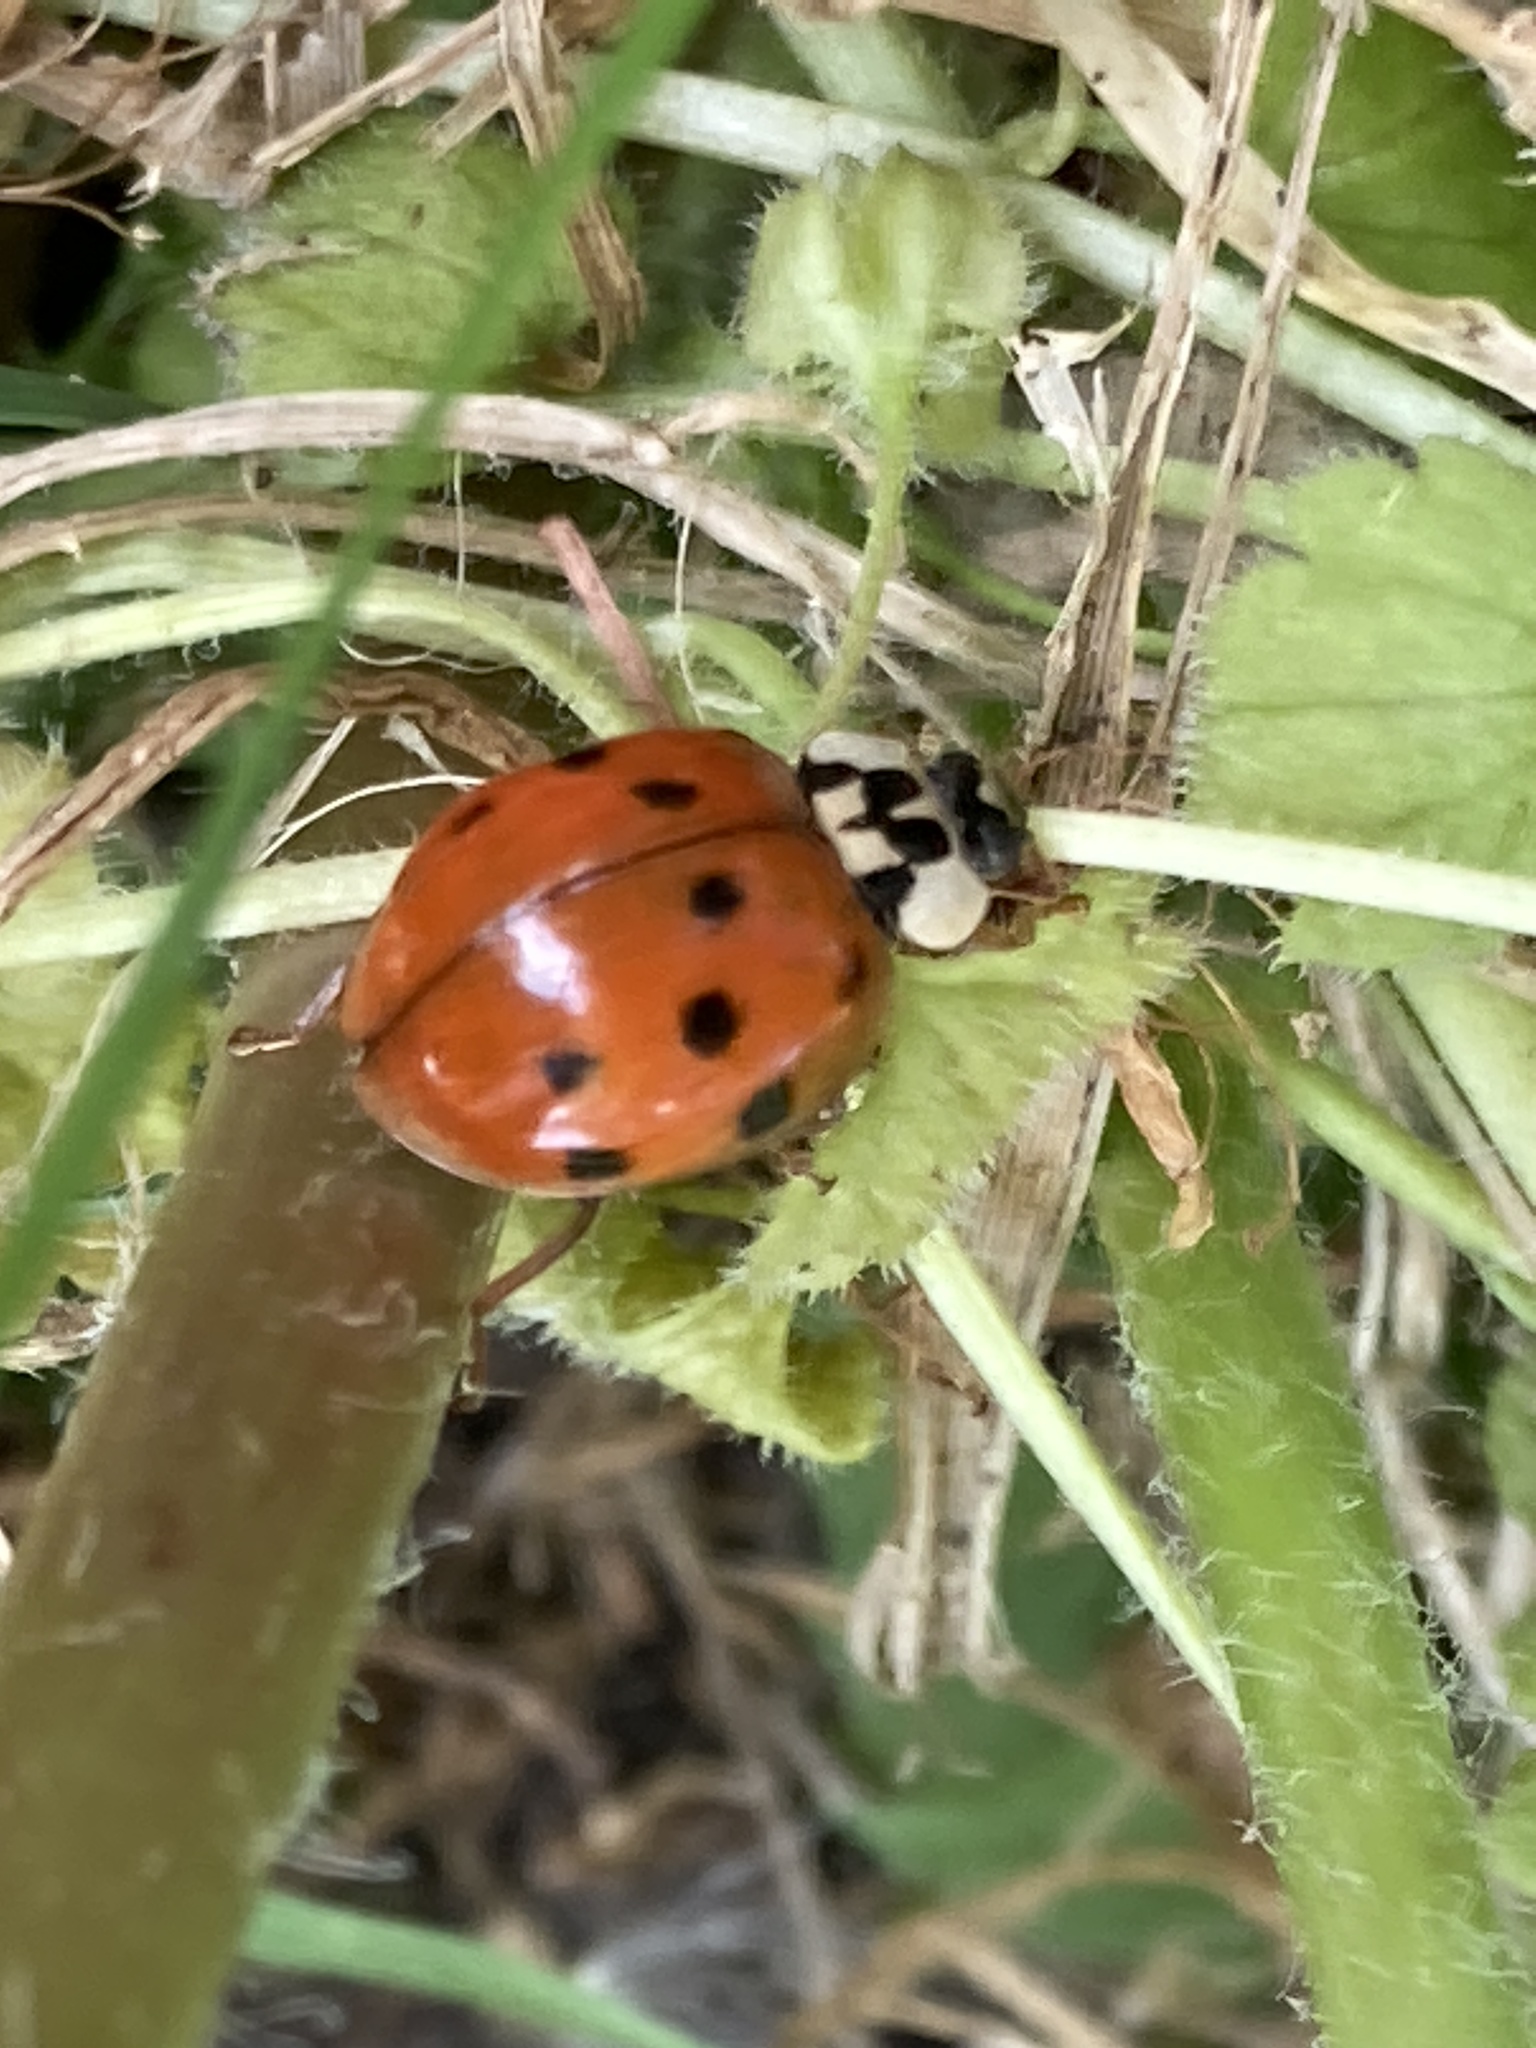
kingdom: Animalia
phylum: Arthropoda
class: Insecta
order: Coleoptera
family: Coccinellidae
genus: Harmonia
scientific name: Harmonia axyridis
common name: Harlequin ladybird
